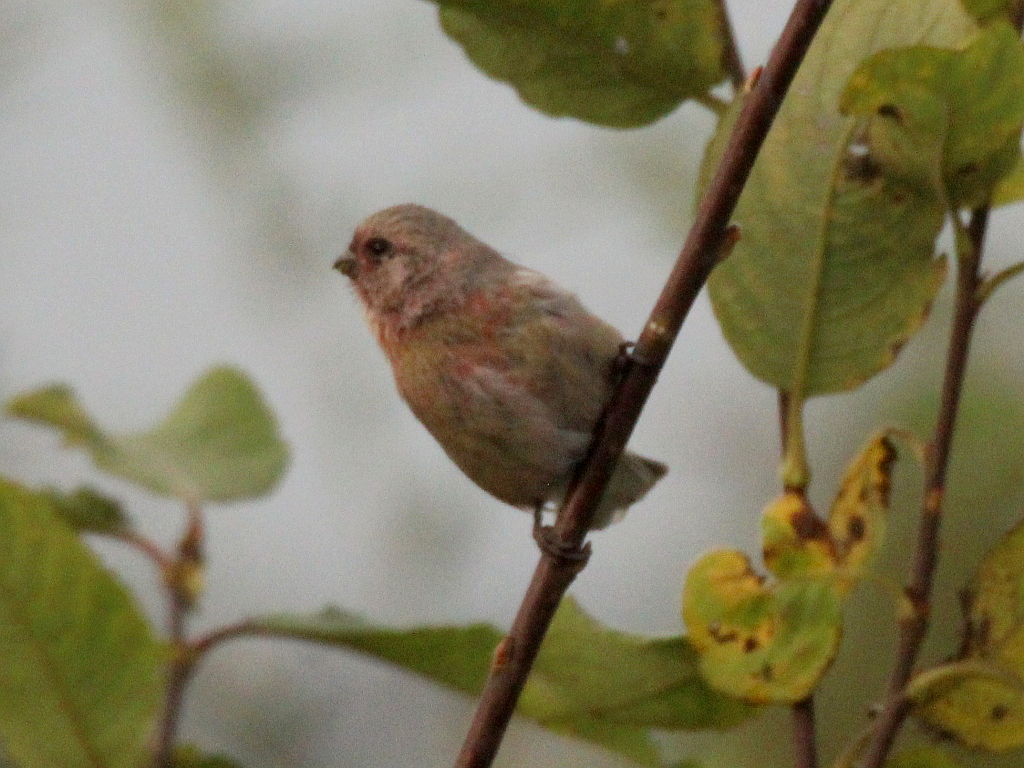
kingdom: Animalia
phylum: Chordata
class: Aves
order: Passeriformes
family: Fringillidae
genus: Carpodacus
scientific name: Carpodacus sibiricus
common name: Long-tailed rosefinch
